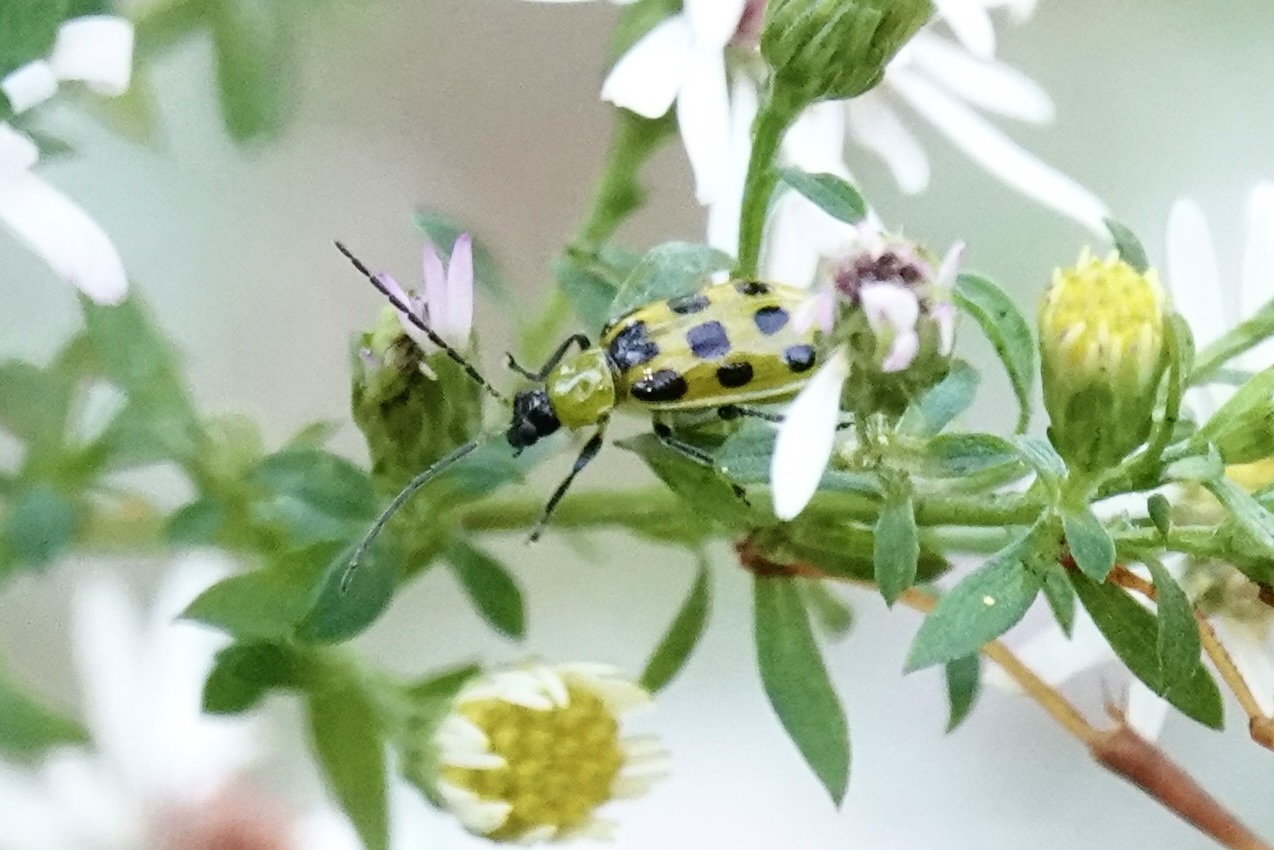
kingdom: Animalia
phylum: Arthropoda
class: Insecta
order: Coleoptera
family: Chrysomelidae
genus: Diabrotica
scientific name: Diabrotica undecimpunctata
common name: Spotted cucumber beetle
